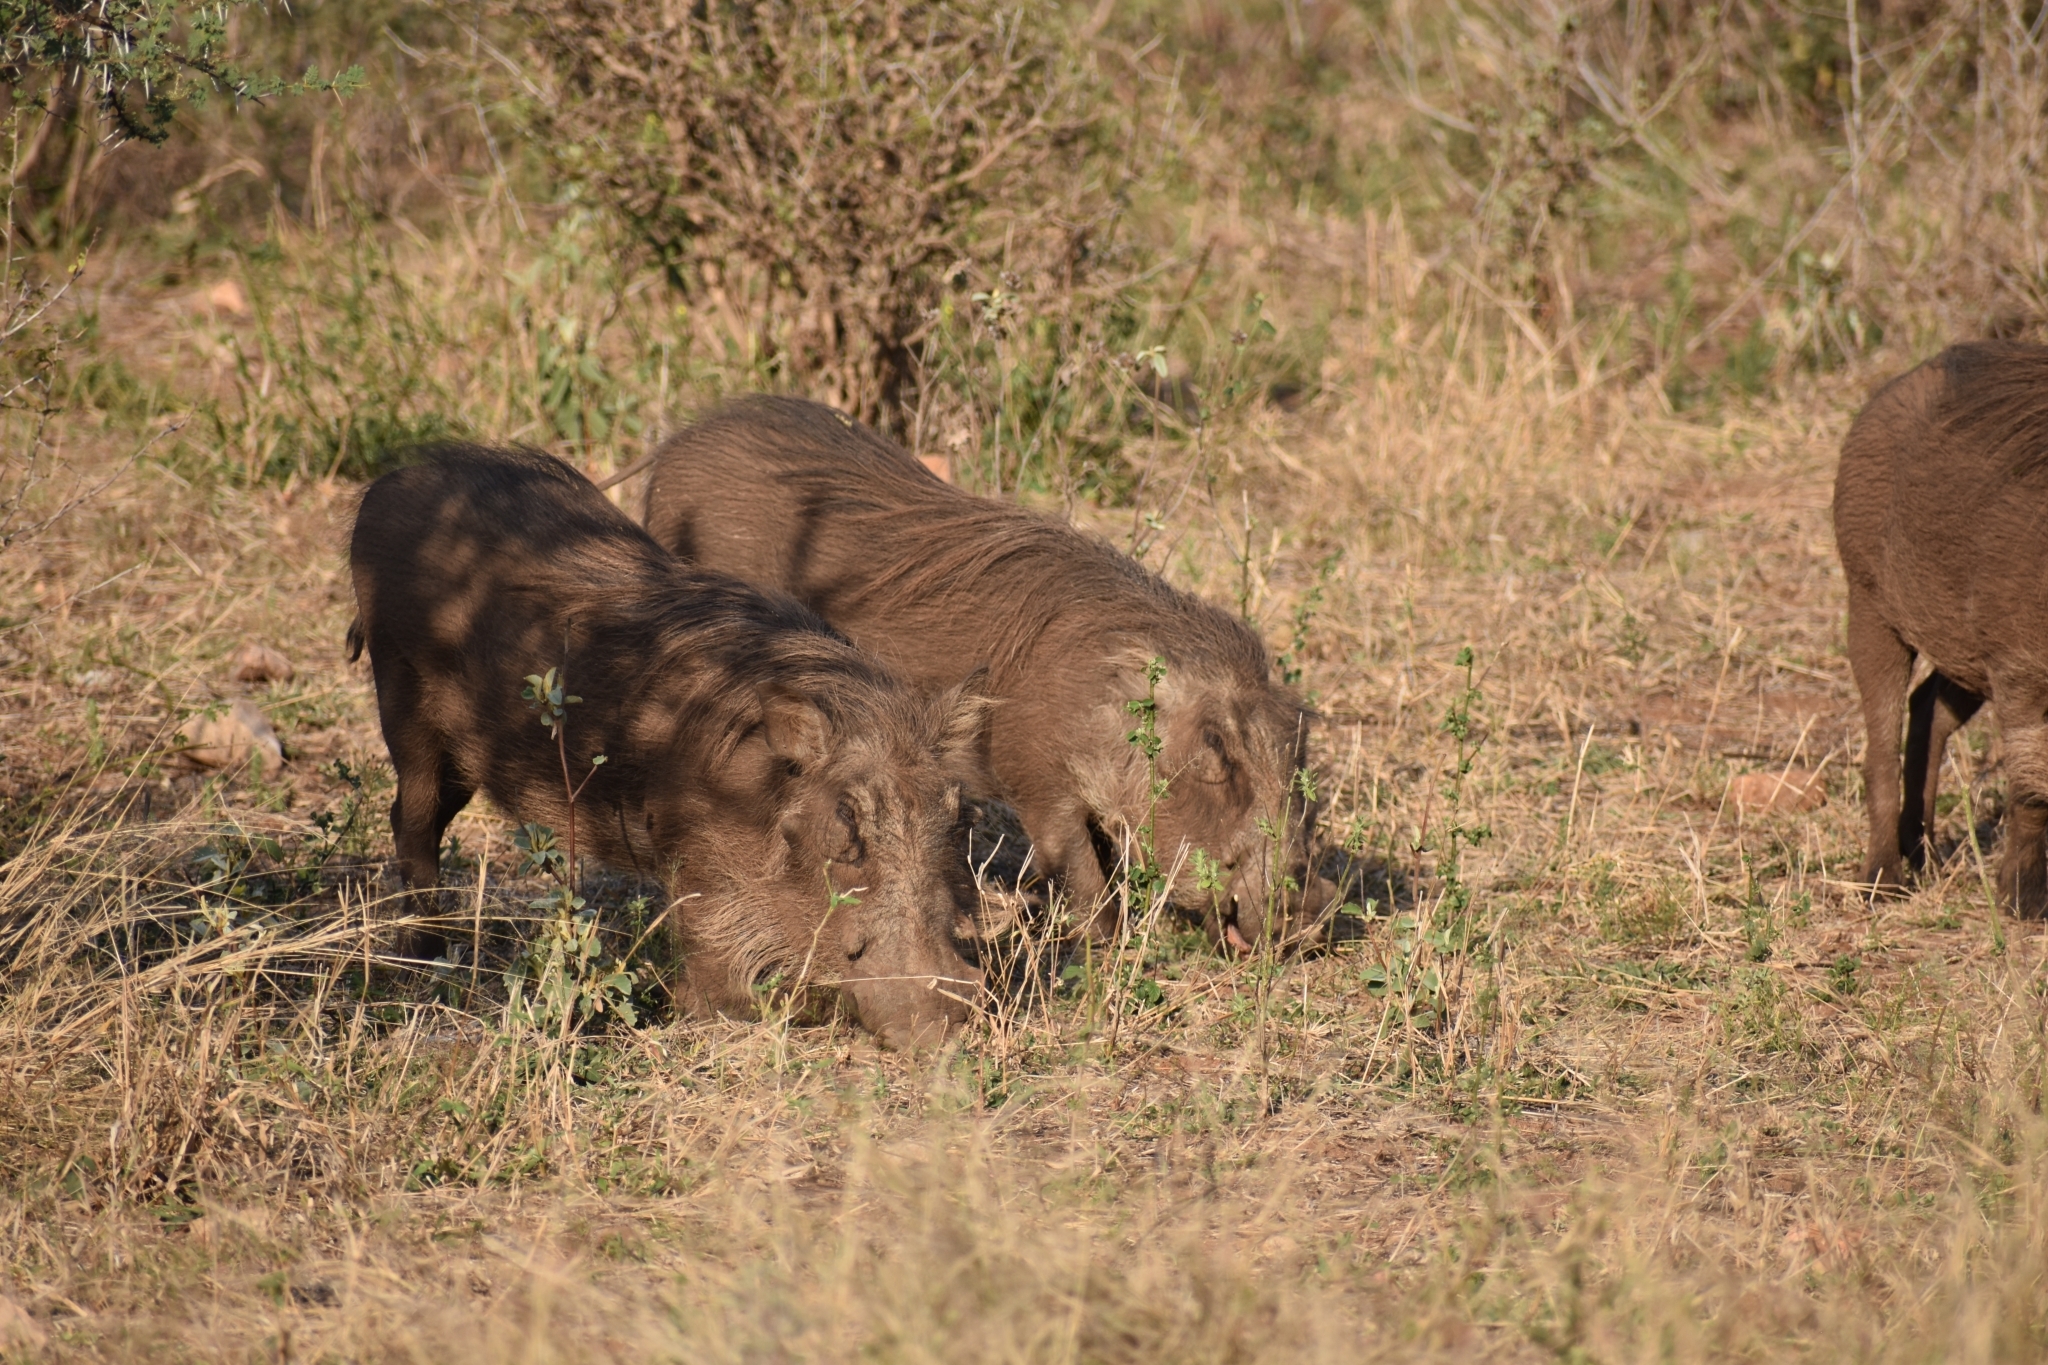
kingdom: Animalia
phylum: Chordata
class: Mammalia
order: Artiodactyla
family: Suidae
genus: Phacochoerus
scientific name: Phacochoerus africanus
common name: Common warthog
